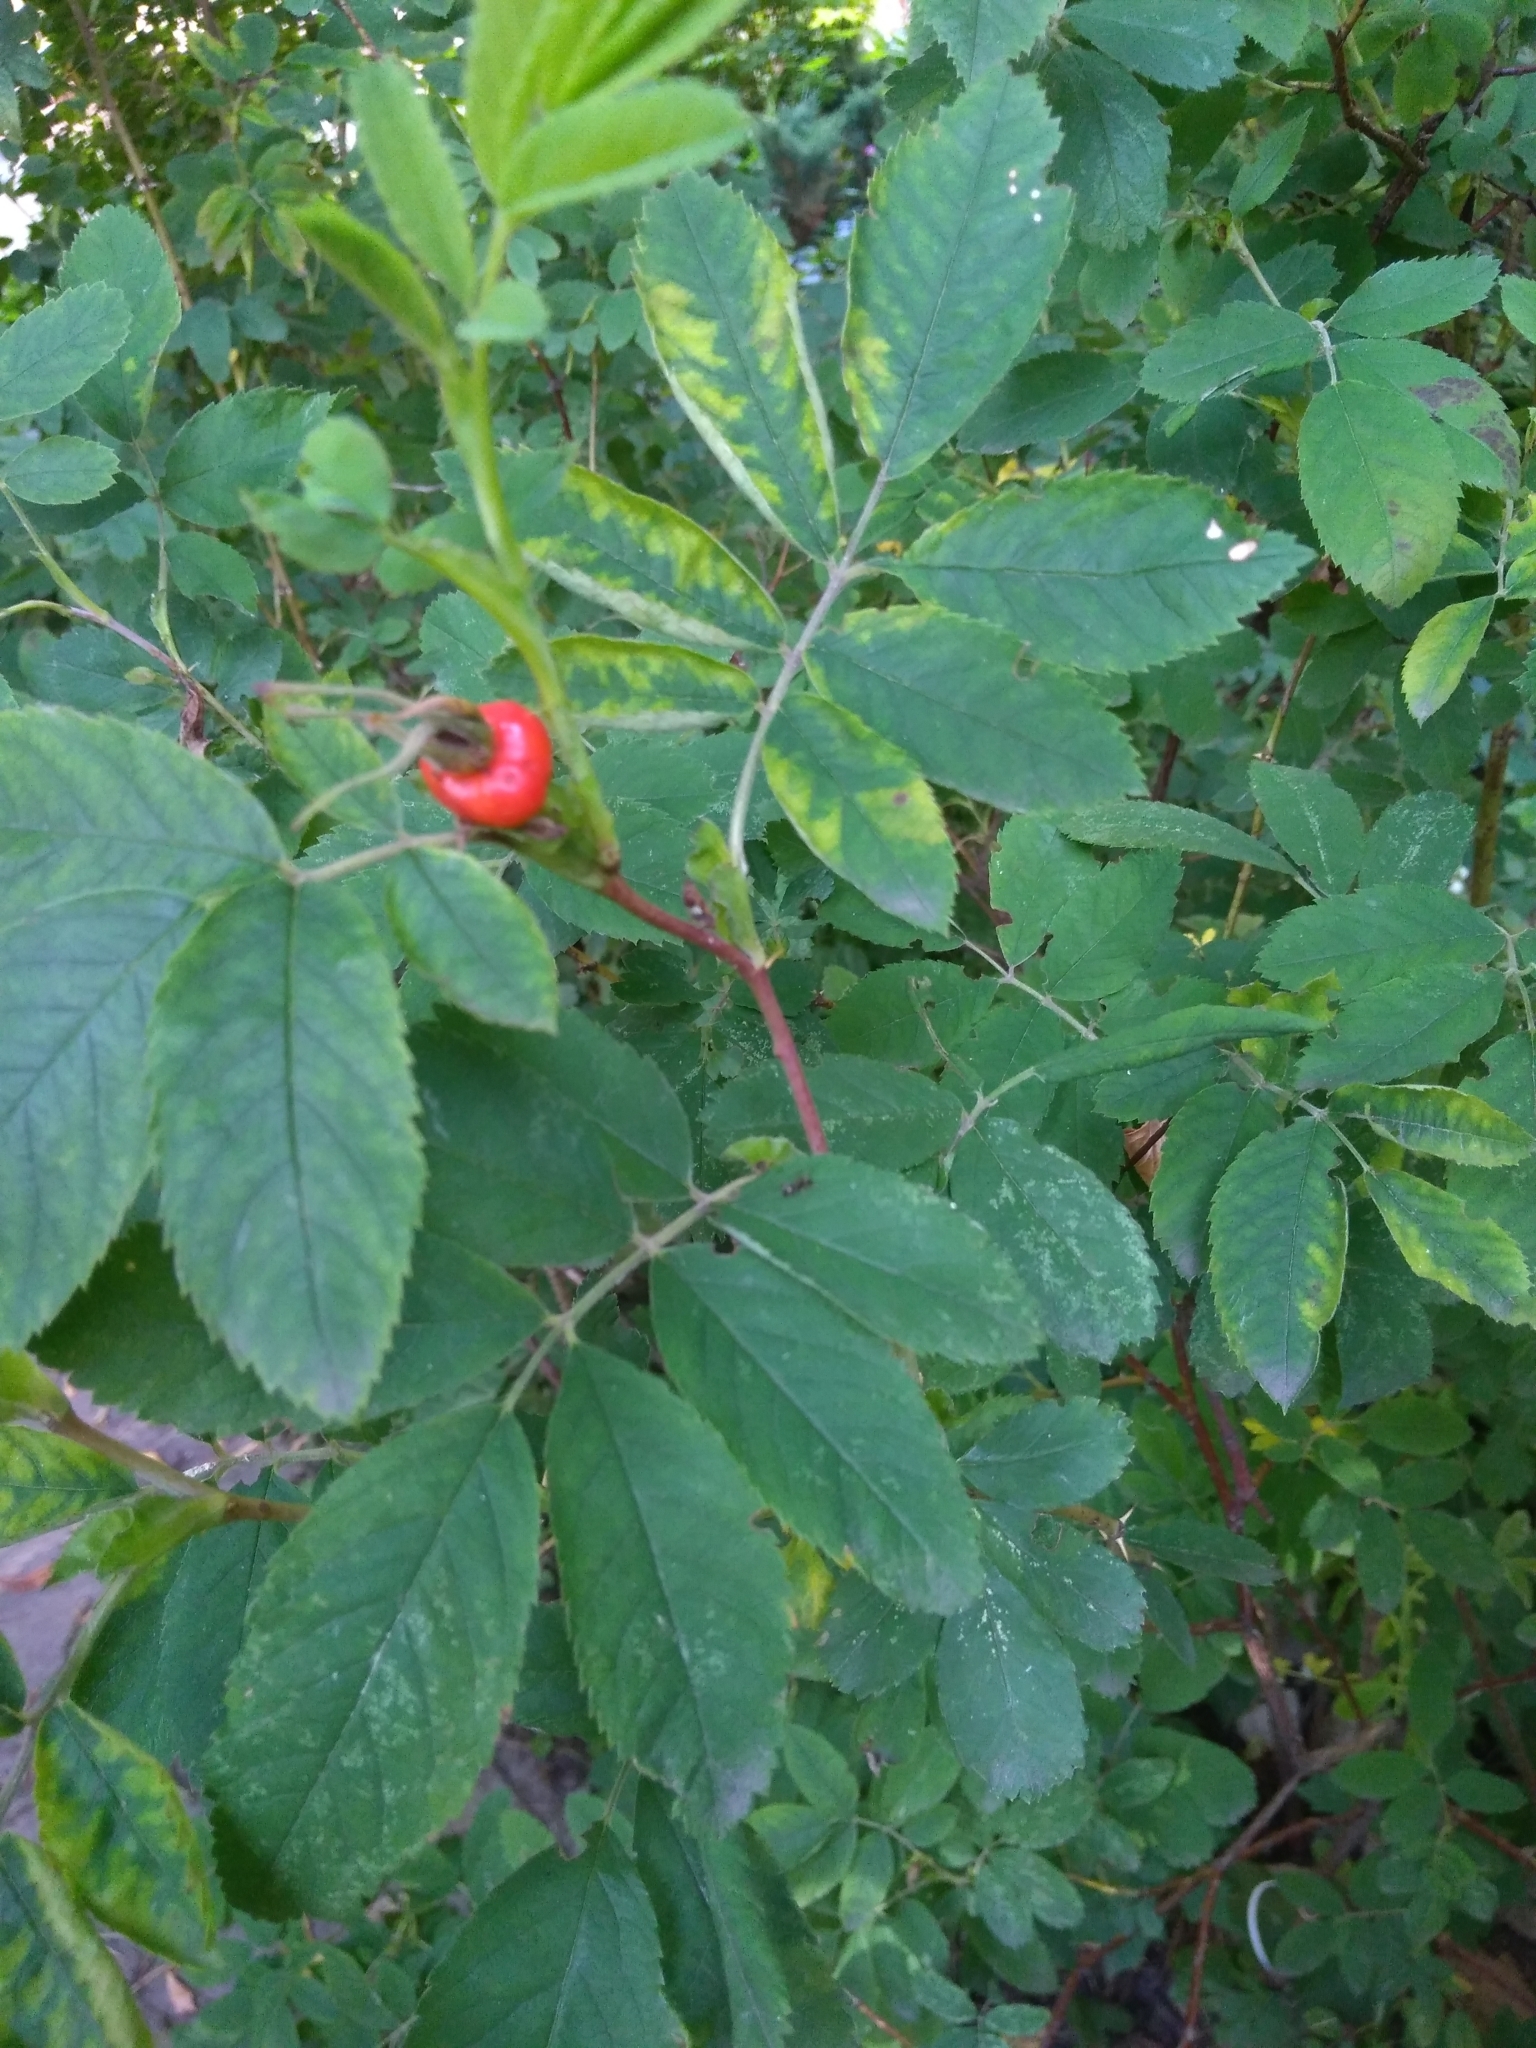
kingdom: Plantae
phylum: Tracheophyta
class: Magnoliopsida
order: Rosales
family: Rosaceae
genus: Rosa
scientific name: Rosa majalis
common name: Cinnamon rose
